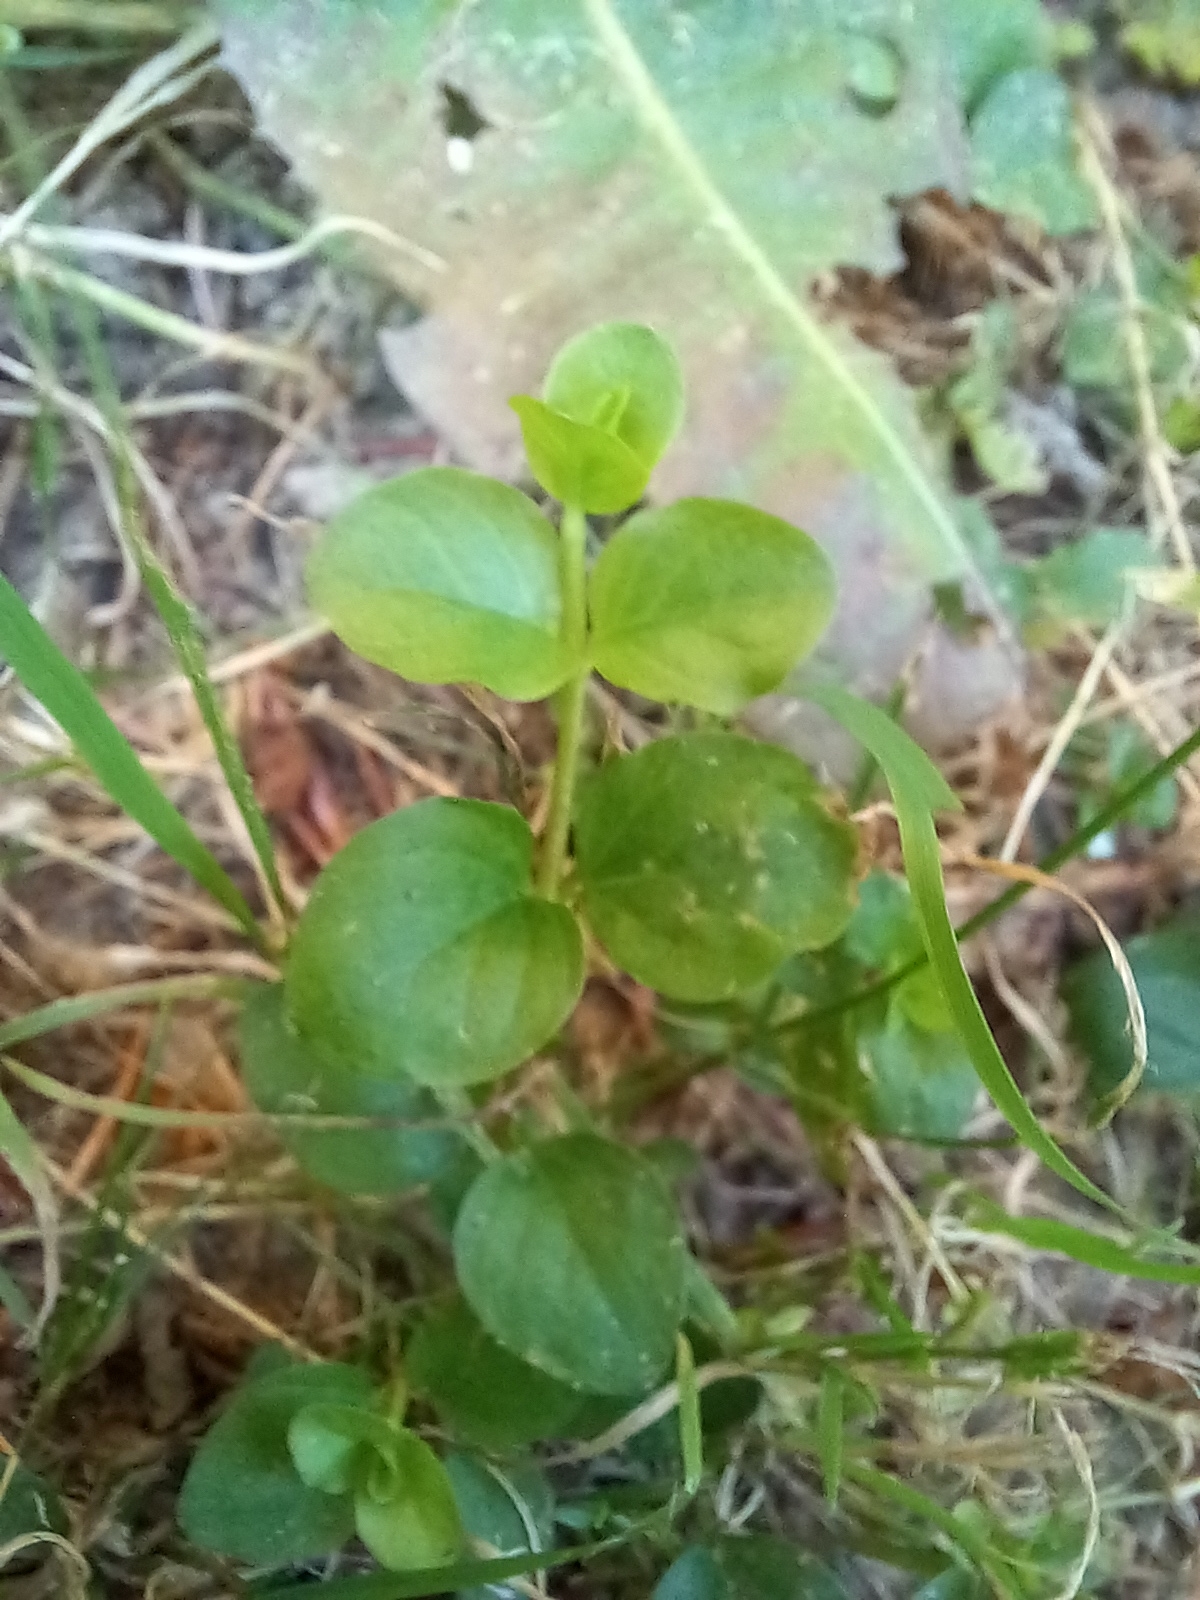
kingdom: Plantae
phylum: Tracheophyta
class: Magnoliopsida
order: Ericales
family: Primulaceae
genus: Lysimachia
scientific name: Lysimachia nummularia
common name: Moneywort
